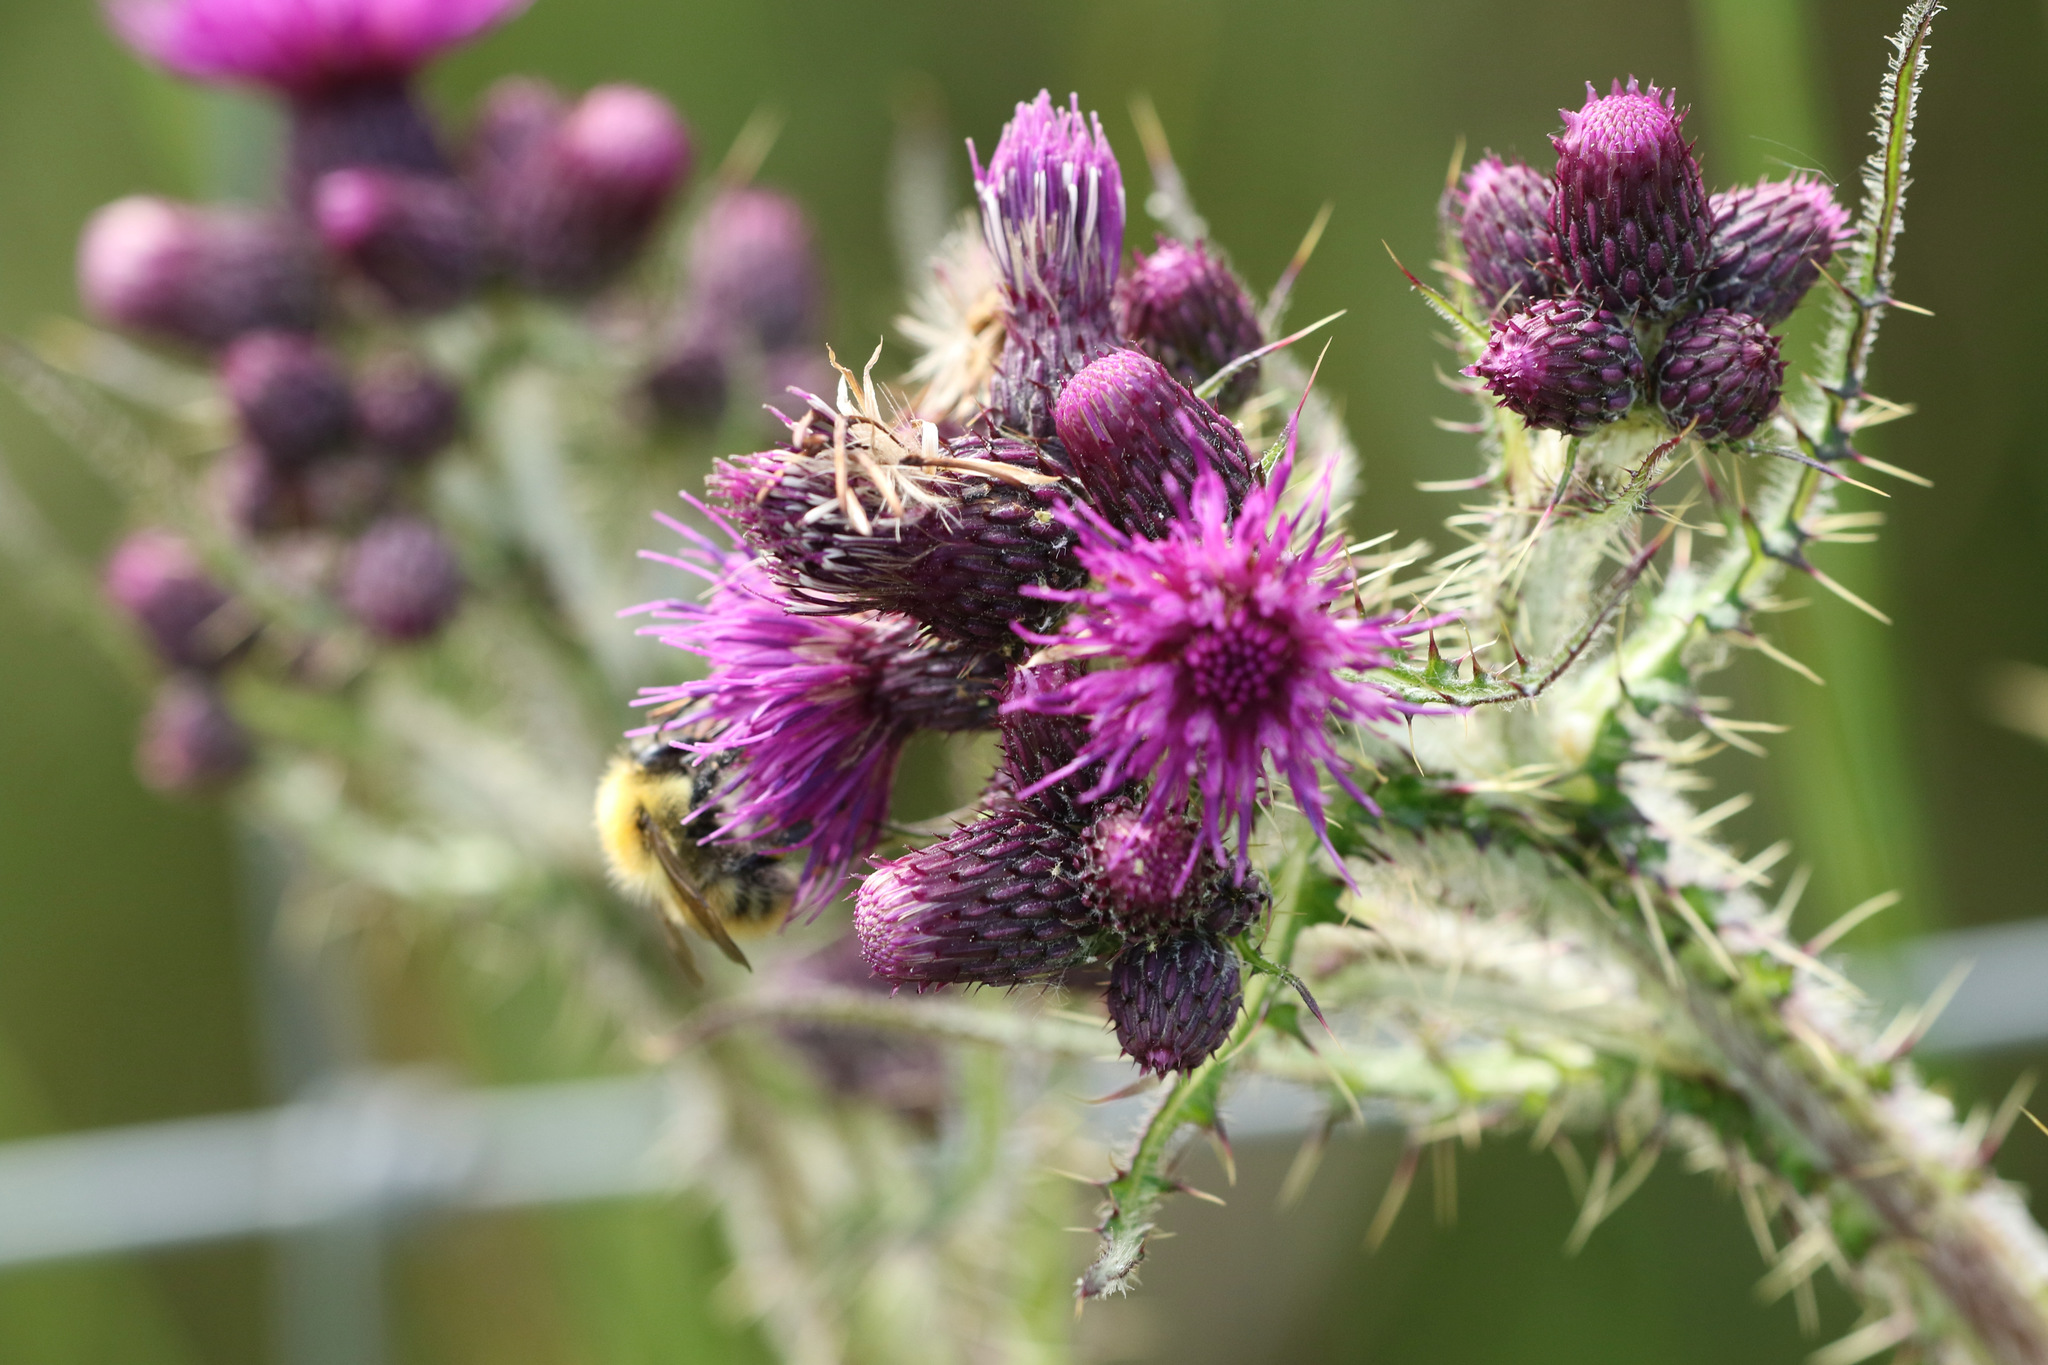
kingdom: Plantae
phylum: Tracheophyta
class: Magnoliopsida
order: Asterales
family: Asteraceae
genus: Cirsium
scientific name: Cirsium palustre
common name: Marsh thistle
